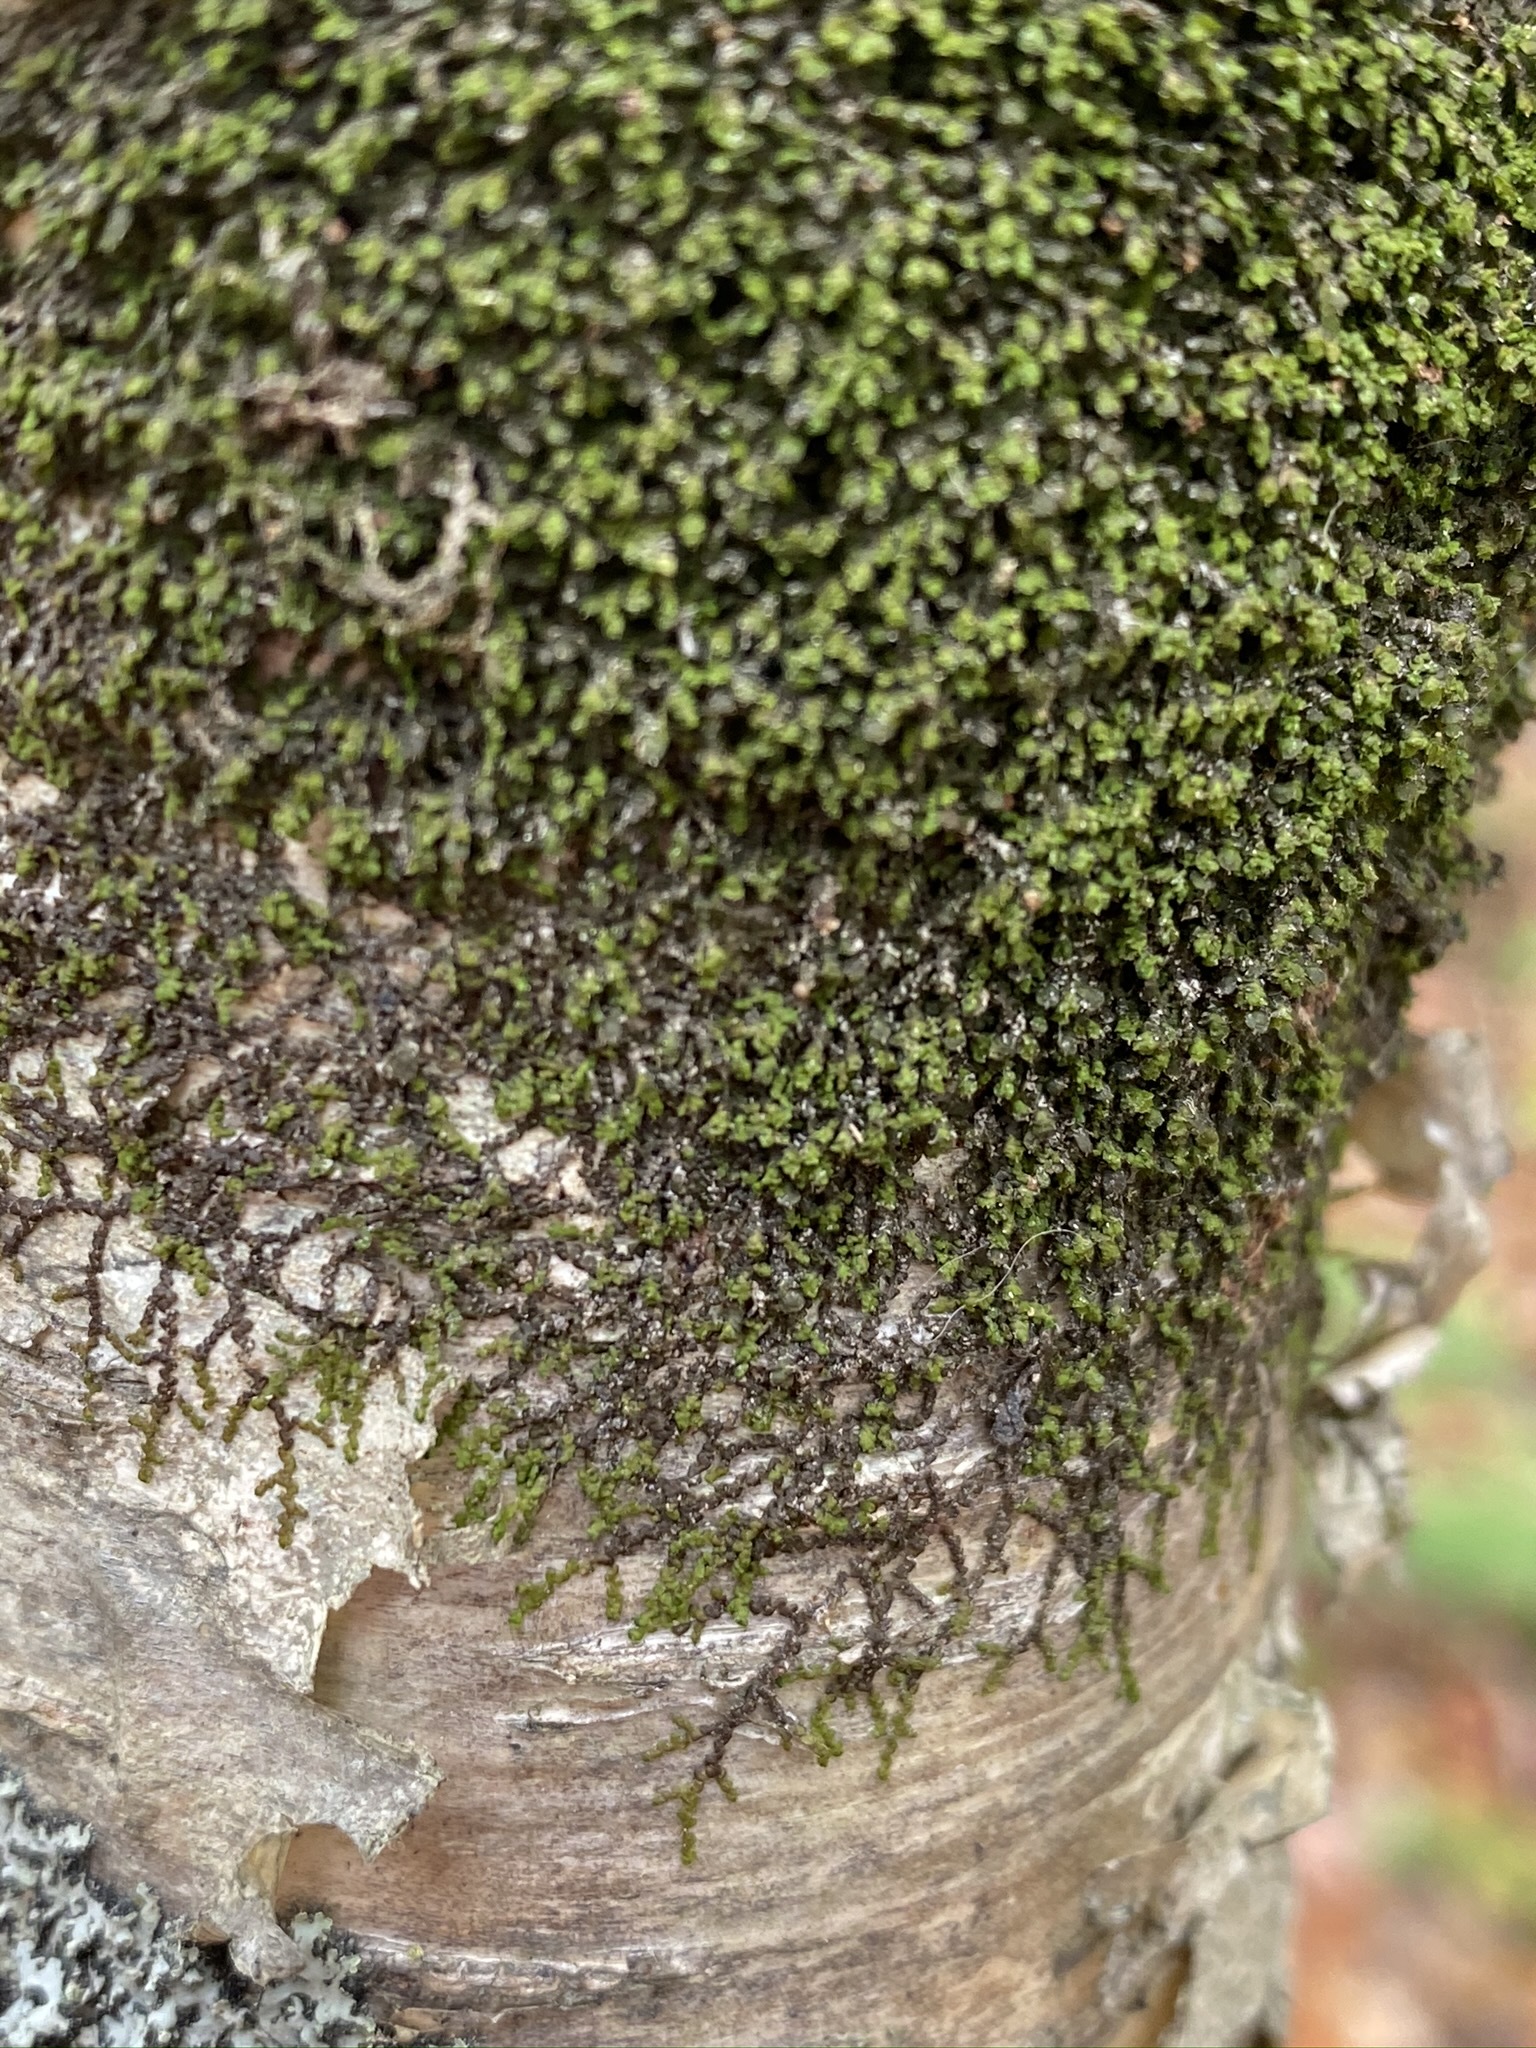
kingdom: Plantae
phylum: Marchantiophyta
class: Jungermanniopsida
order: Porellales
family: Frullaniaceae
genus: Frullania
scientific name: Frullania eboracensis
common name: New york scalewort
